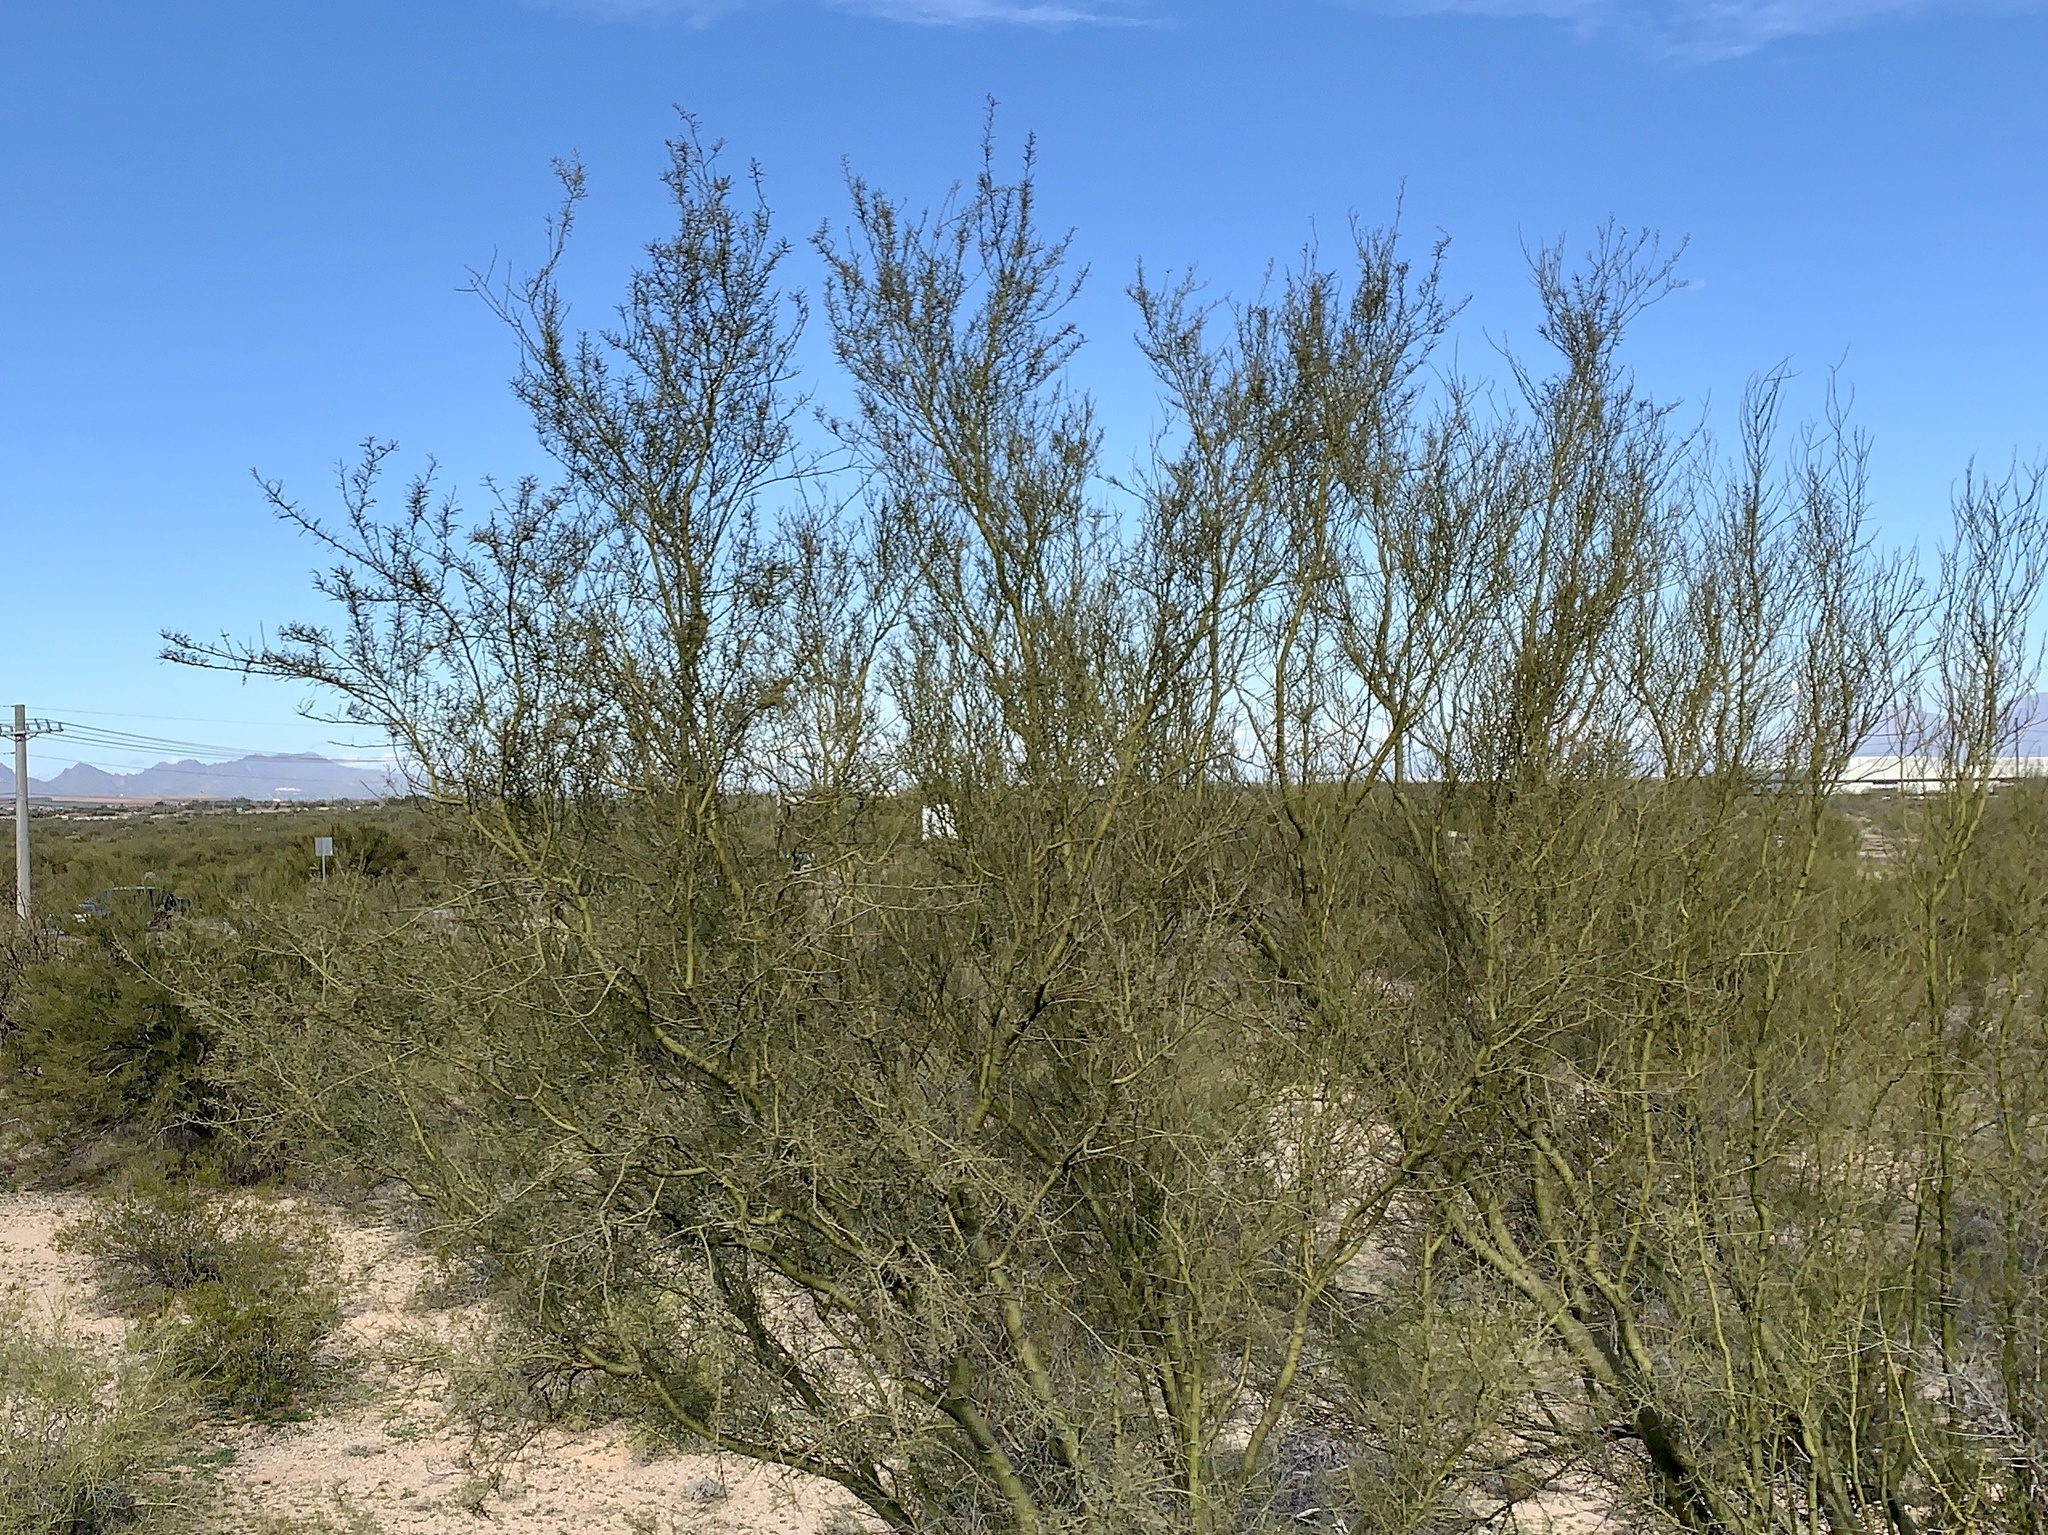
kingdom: Plantae
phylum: Tracheophyta
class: Magnoliopsida
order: Fabales
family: Fabaceae
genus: Parkinsonia
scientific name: Parkinsonia microphylla
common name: Yellow paloverde
